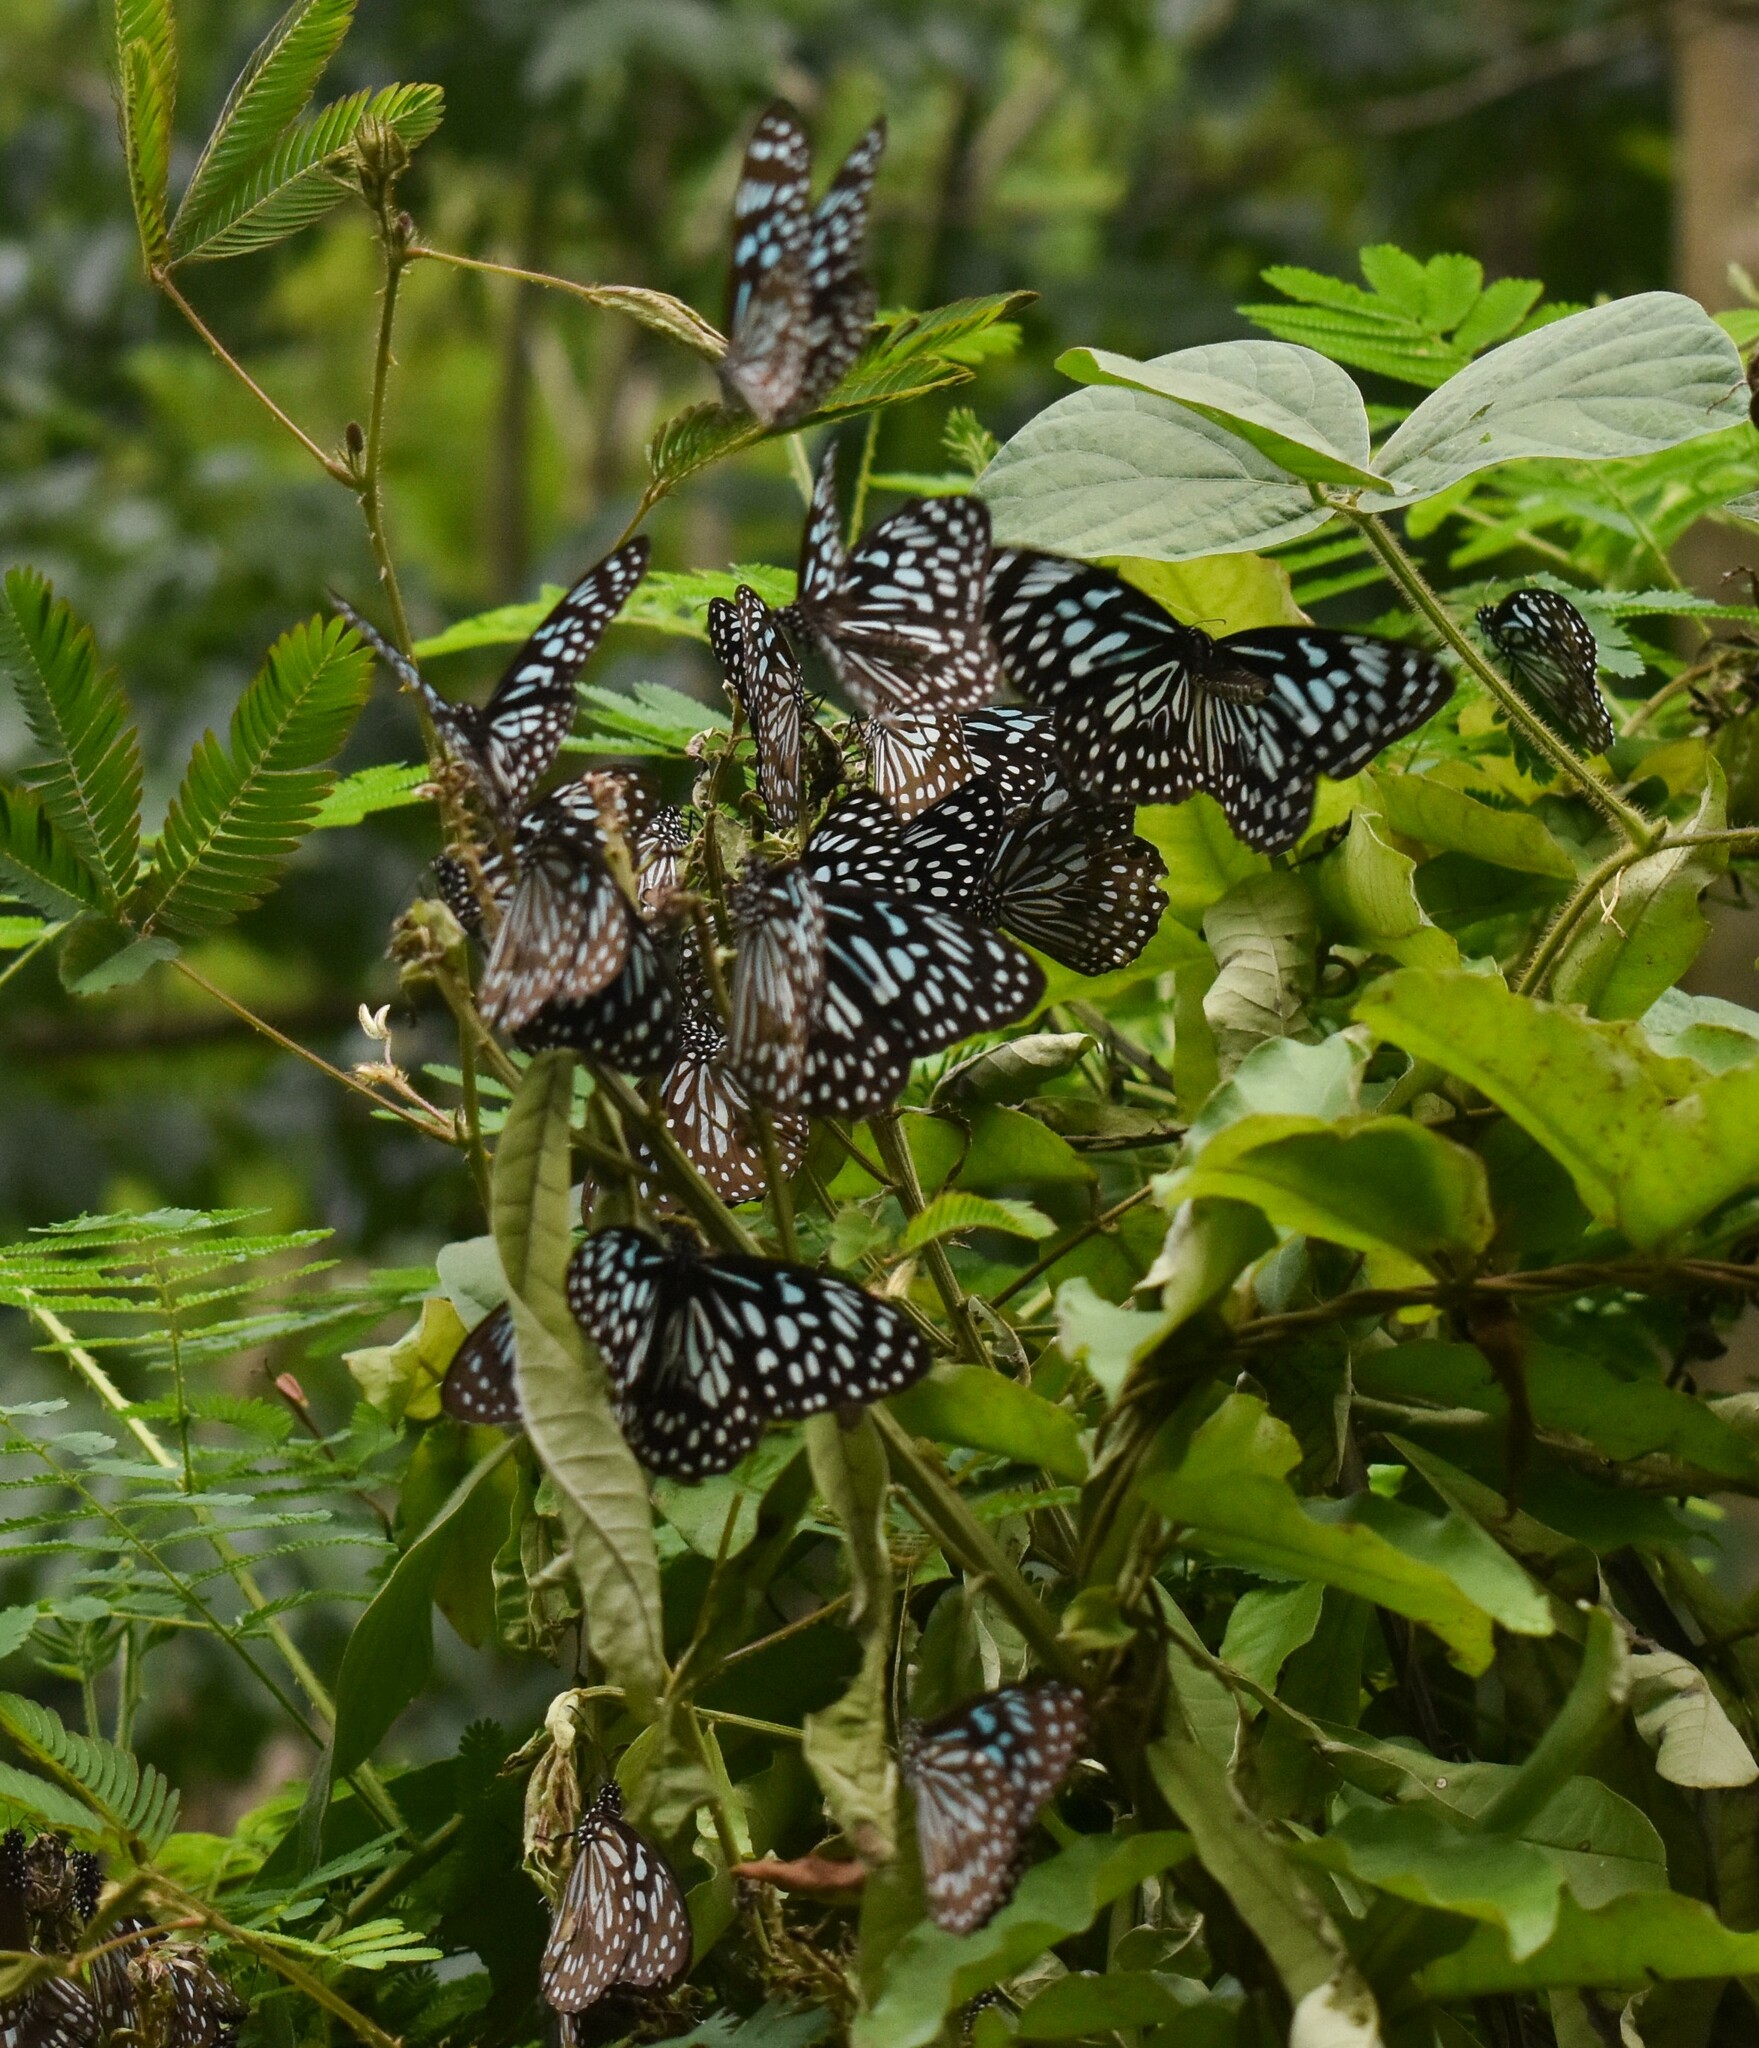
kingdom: Animalia
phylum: Arthropoda
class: Insecta
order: Lepidoptera
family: Nymphalidae
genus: Tirumala
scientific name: Tirumala septentrionis
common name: Dark blue tiger butterfly
